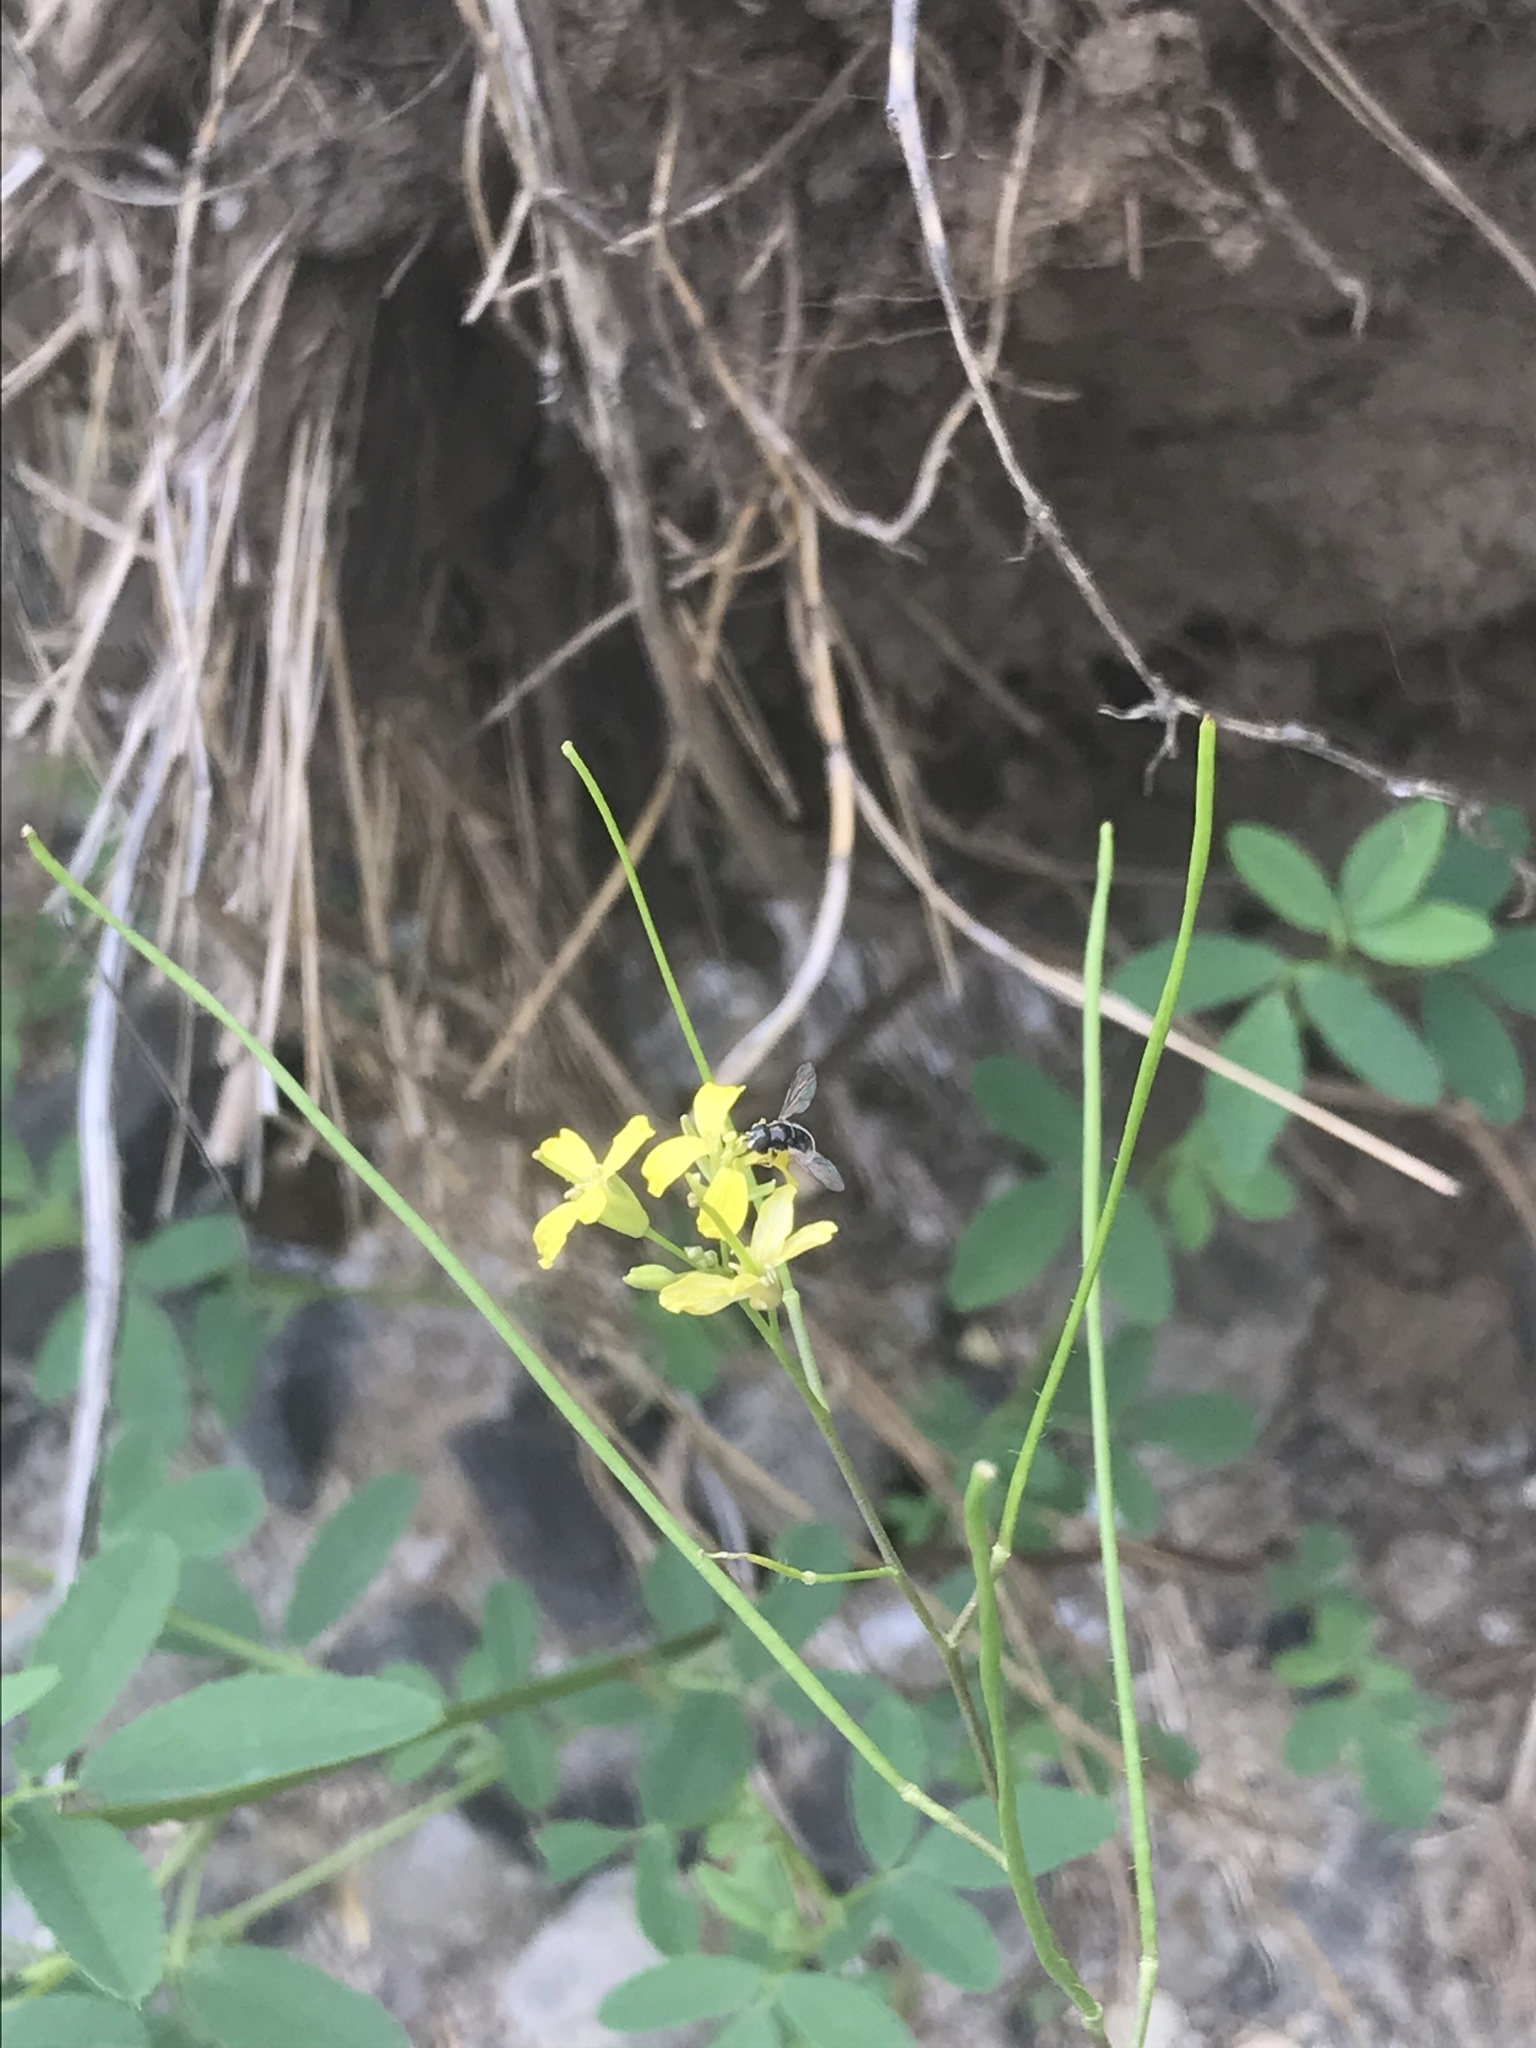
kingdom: Animalia
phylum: Arthropoda
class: Insecta
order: Diptera
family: Syrphidae
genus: Paragus
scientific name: Paragus
